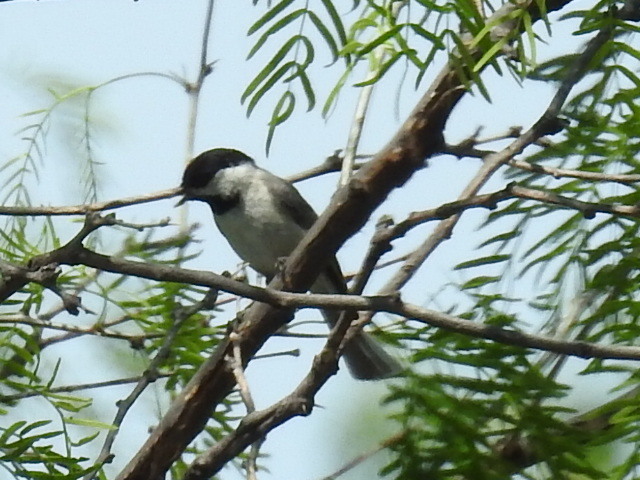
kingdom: Animalia
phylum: Chordata
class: Aves
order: Passeriformes
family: Paridae
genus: Poecile
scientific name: Poecile carolinensis
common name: Carolina chickadee
